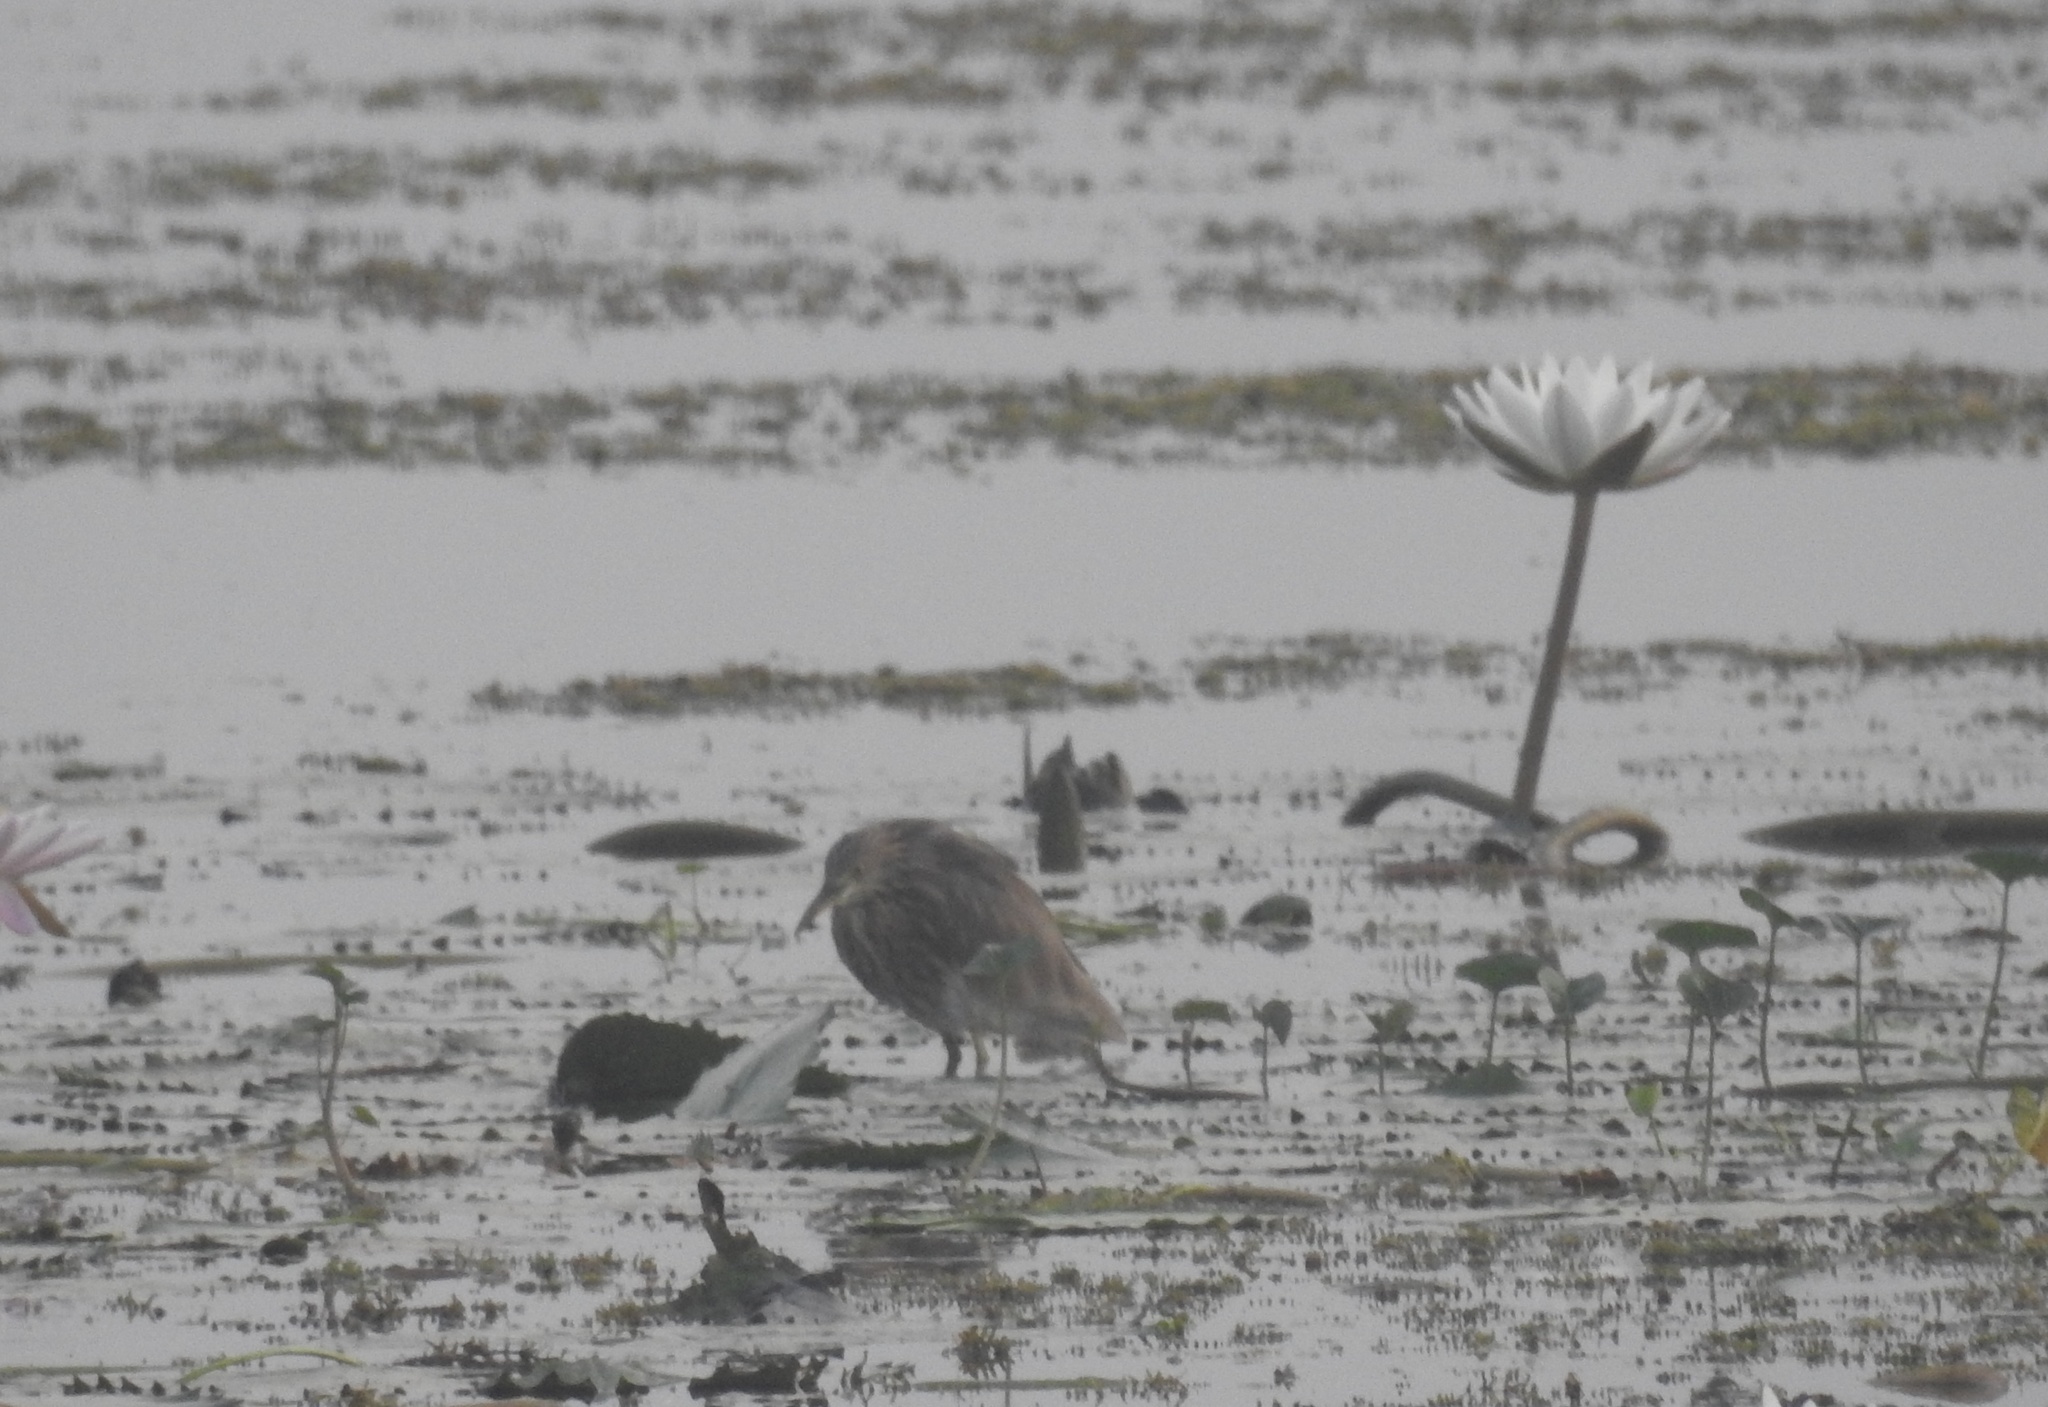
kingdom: Animalia
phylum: Chordata
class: Aves
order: Pelecaniformes
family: Ardeidae
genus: Ardeola
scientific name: Ardeola grayii
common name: Indian pond heron
